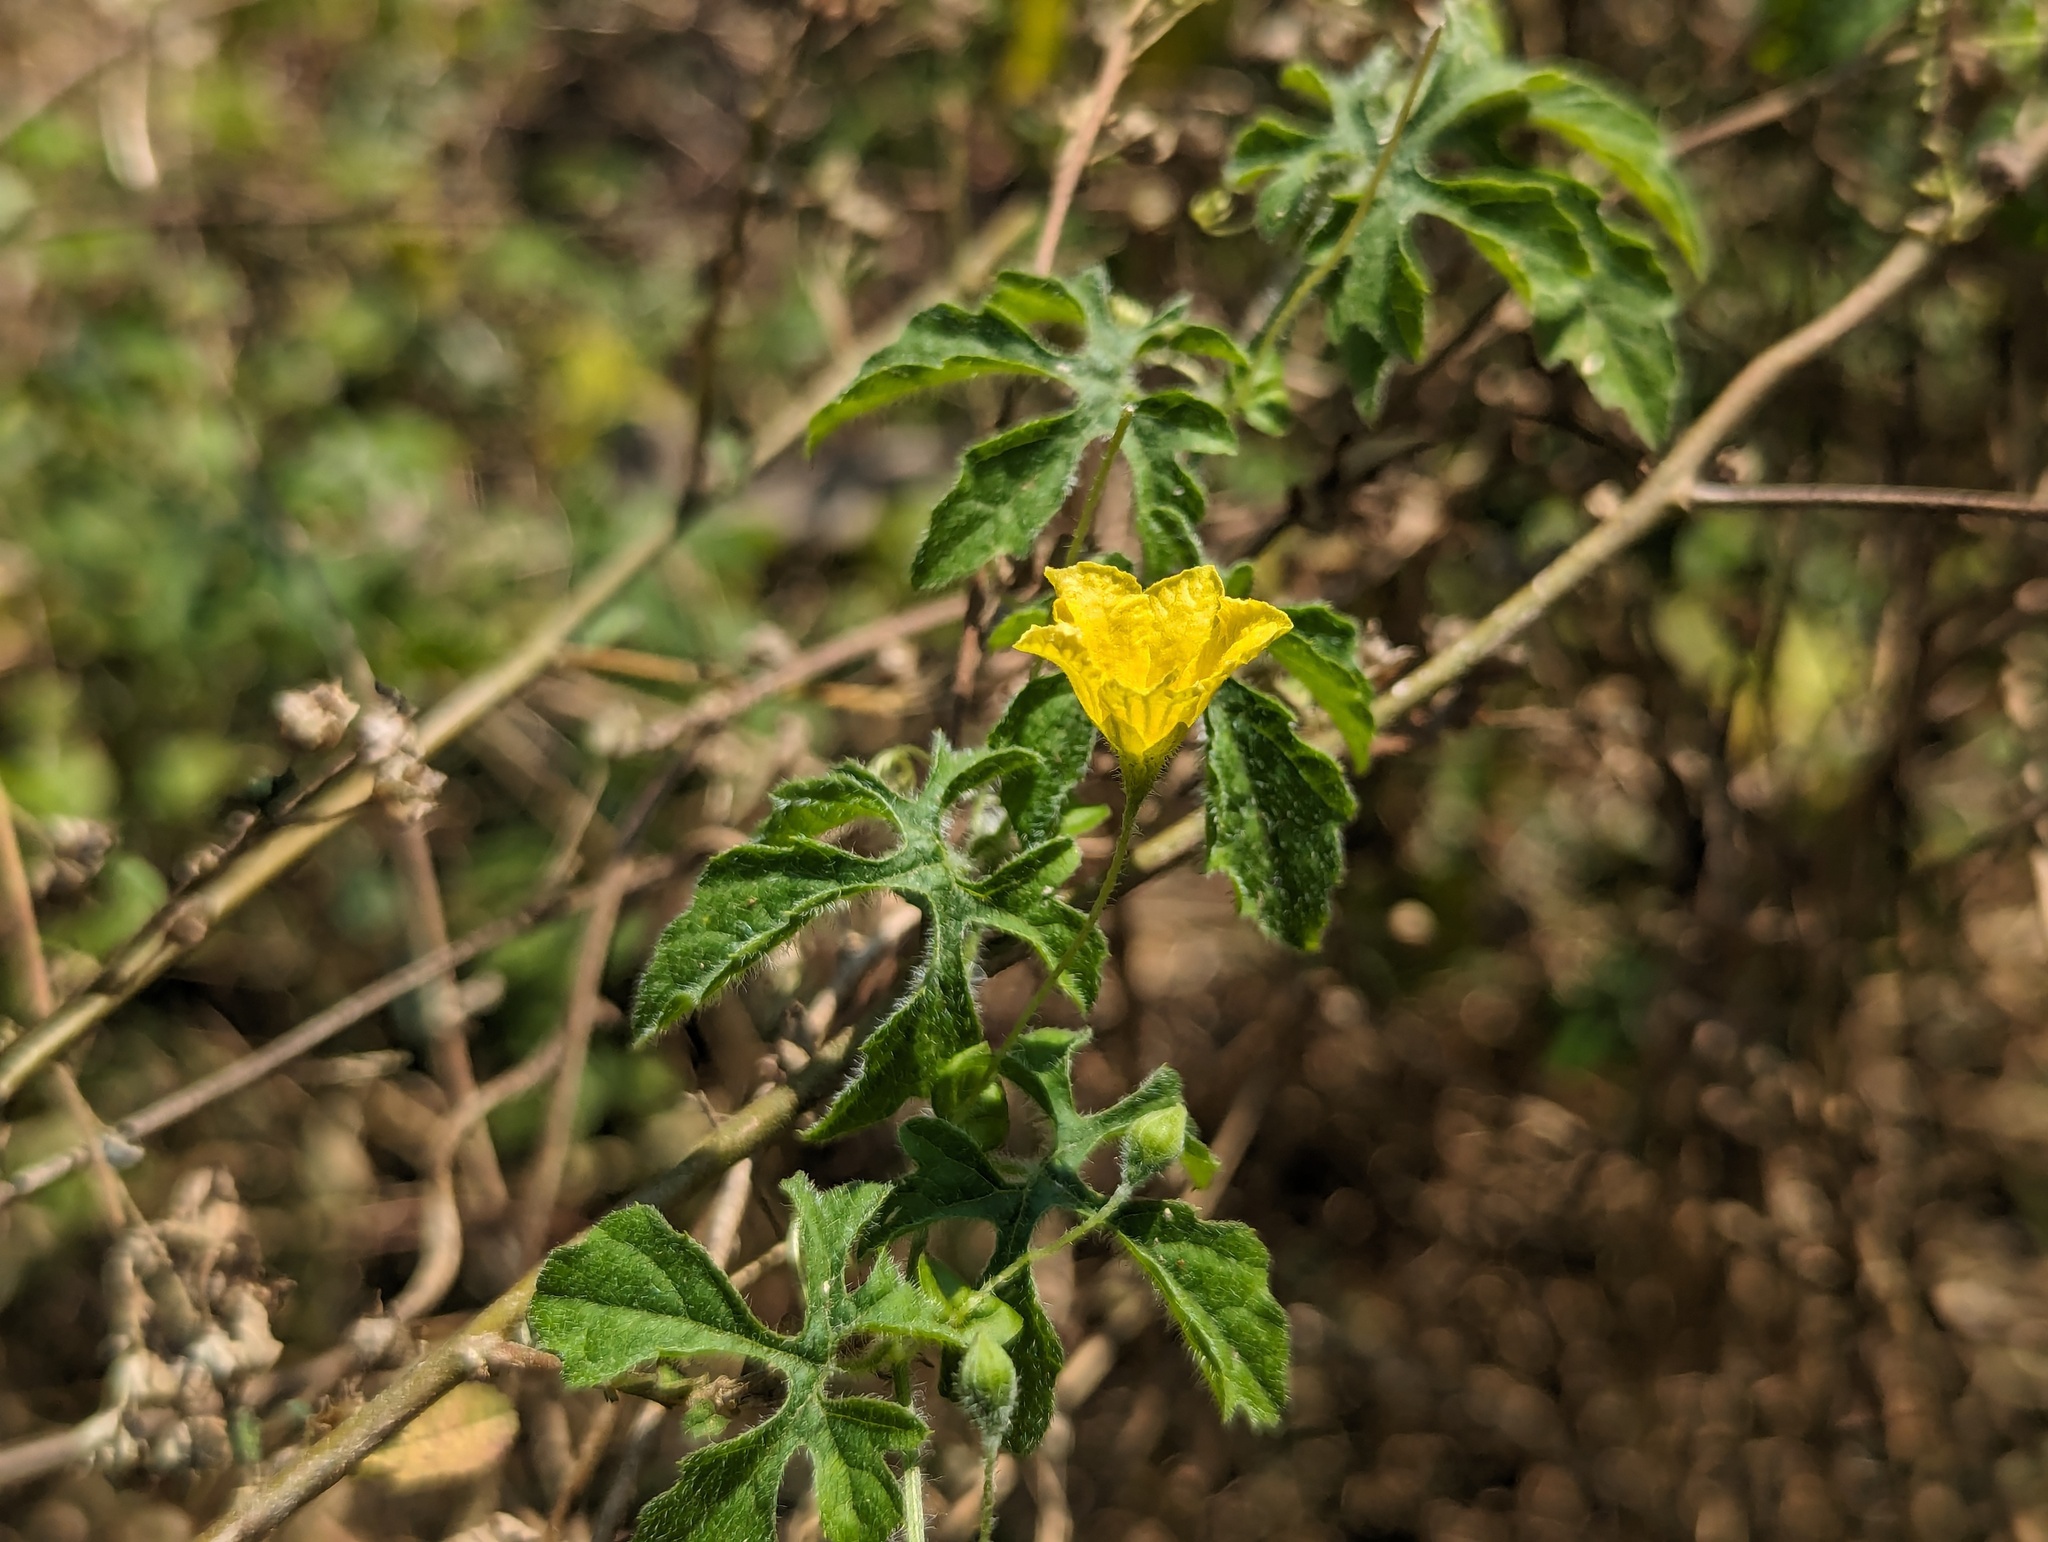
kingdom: Plantae
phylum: Tracheophyta
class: Magnoliopsida
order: Cucurbitales
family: Cucurbitaceae
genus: Momordica
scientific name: Momordica charantia
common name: Balsampear
